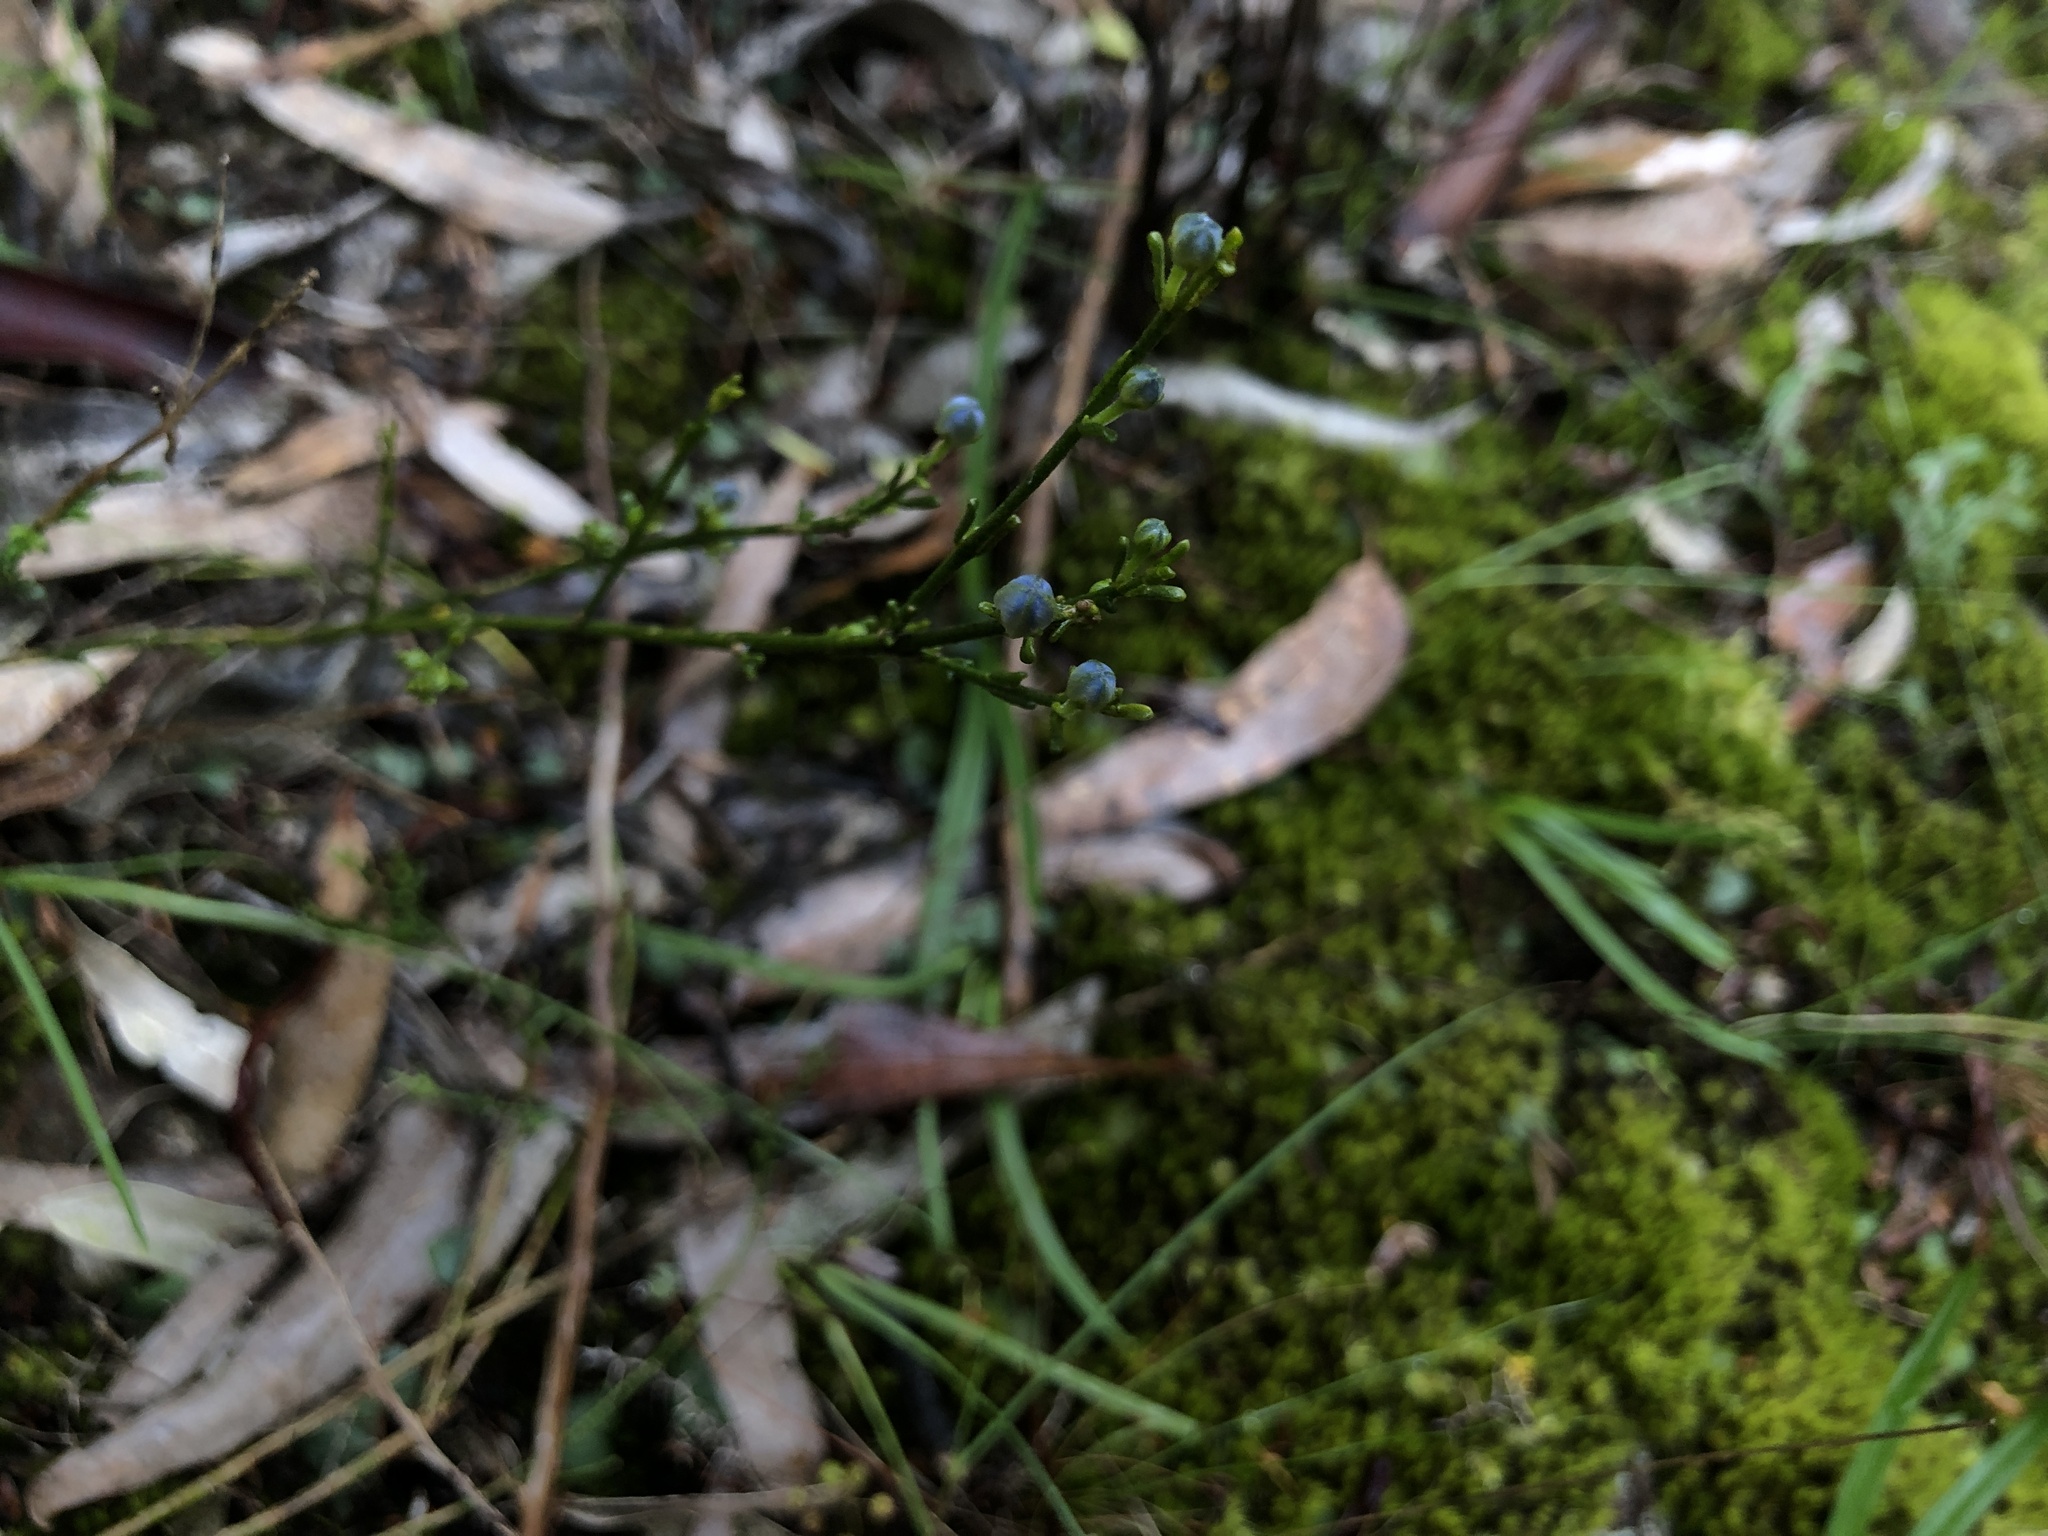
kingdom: Plantae
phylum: Tracheophyta
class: Magnoliopsida
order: Sapindales
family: Rutaceae
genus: Cyanothamnus
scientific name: Cyanothamnus coerulescens
